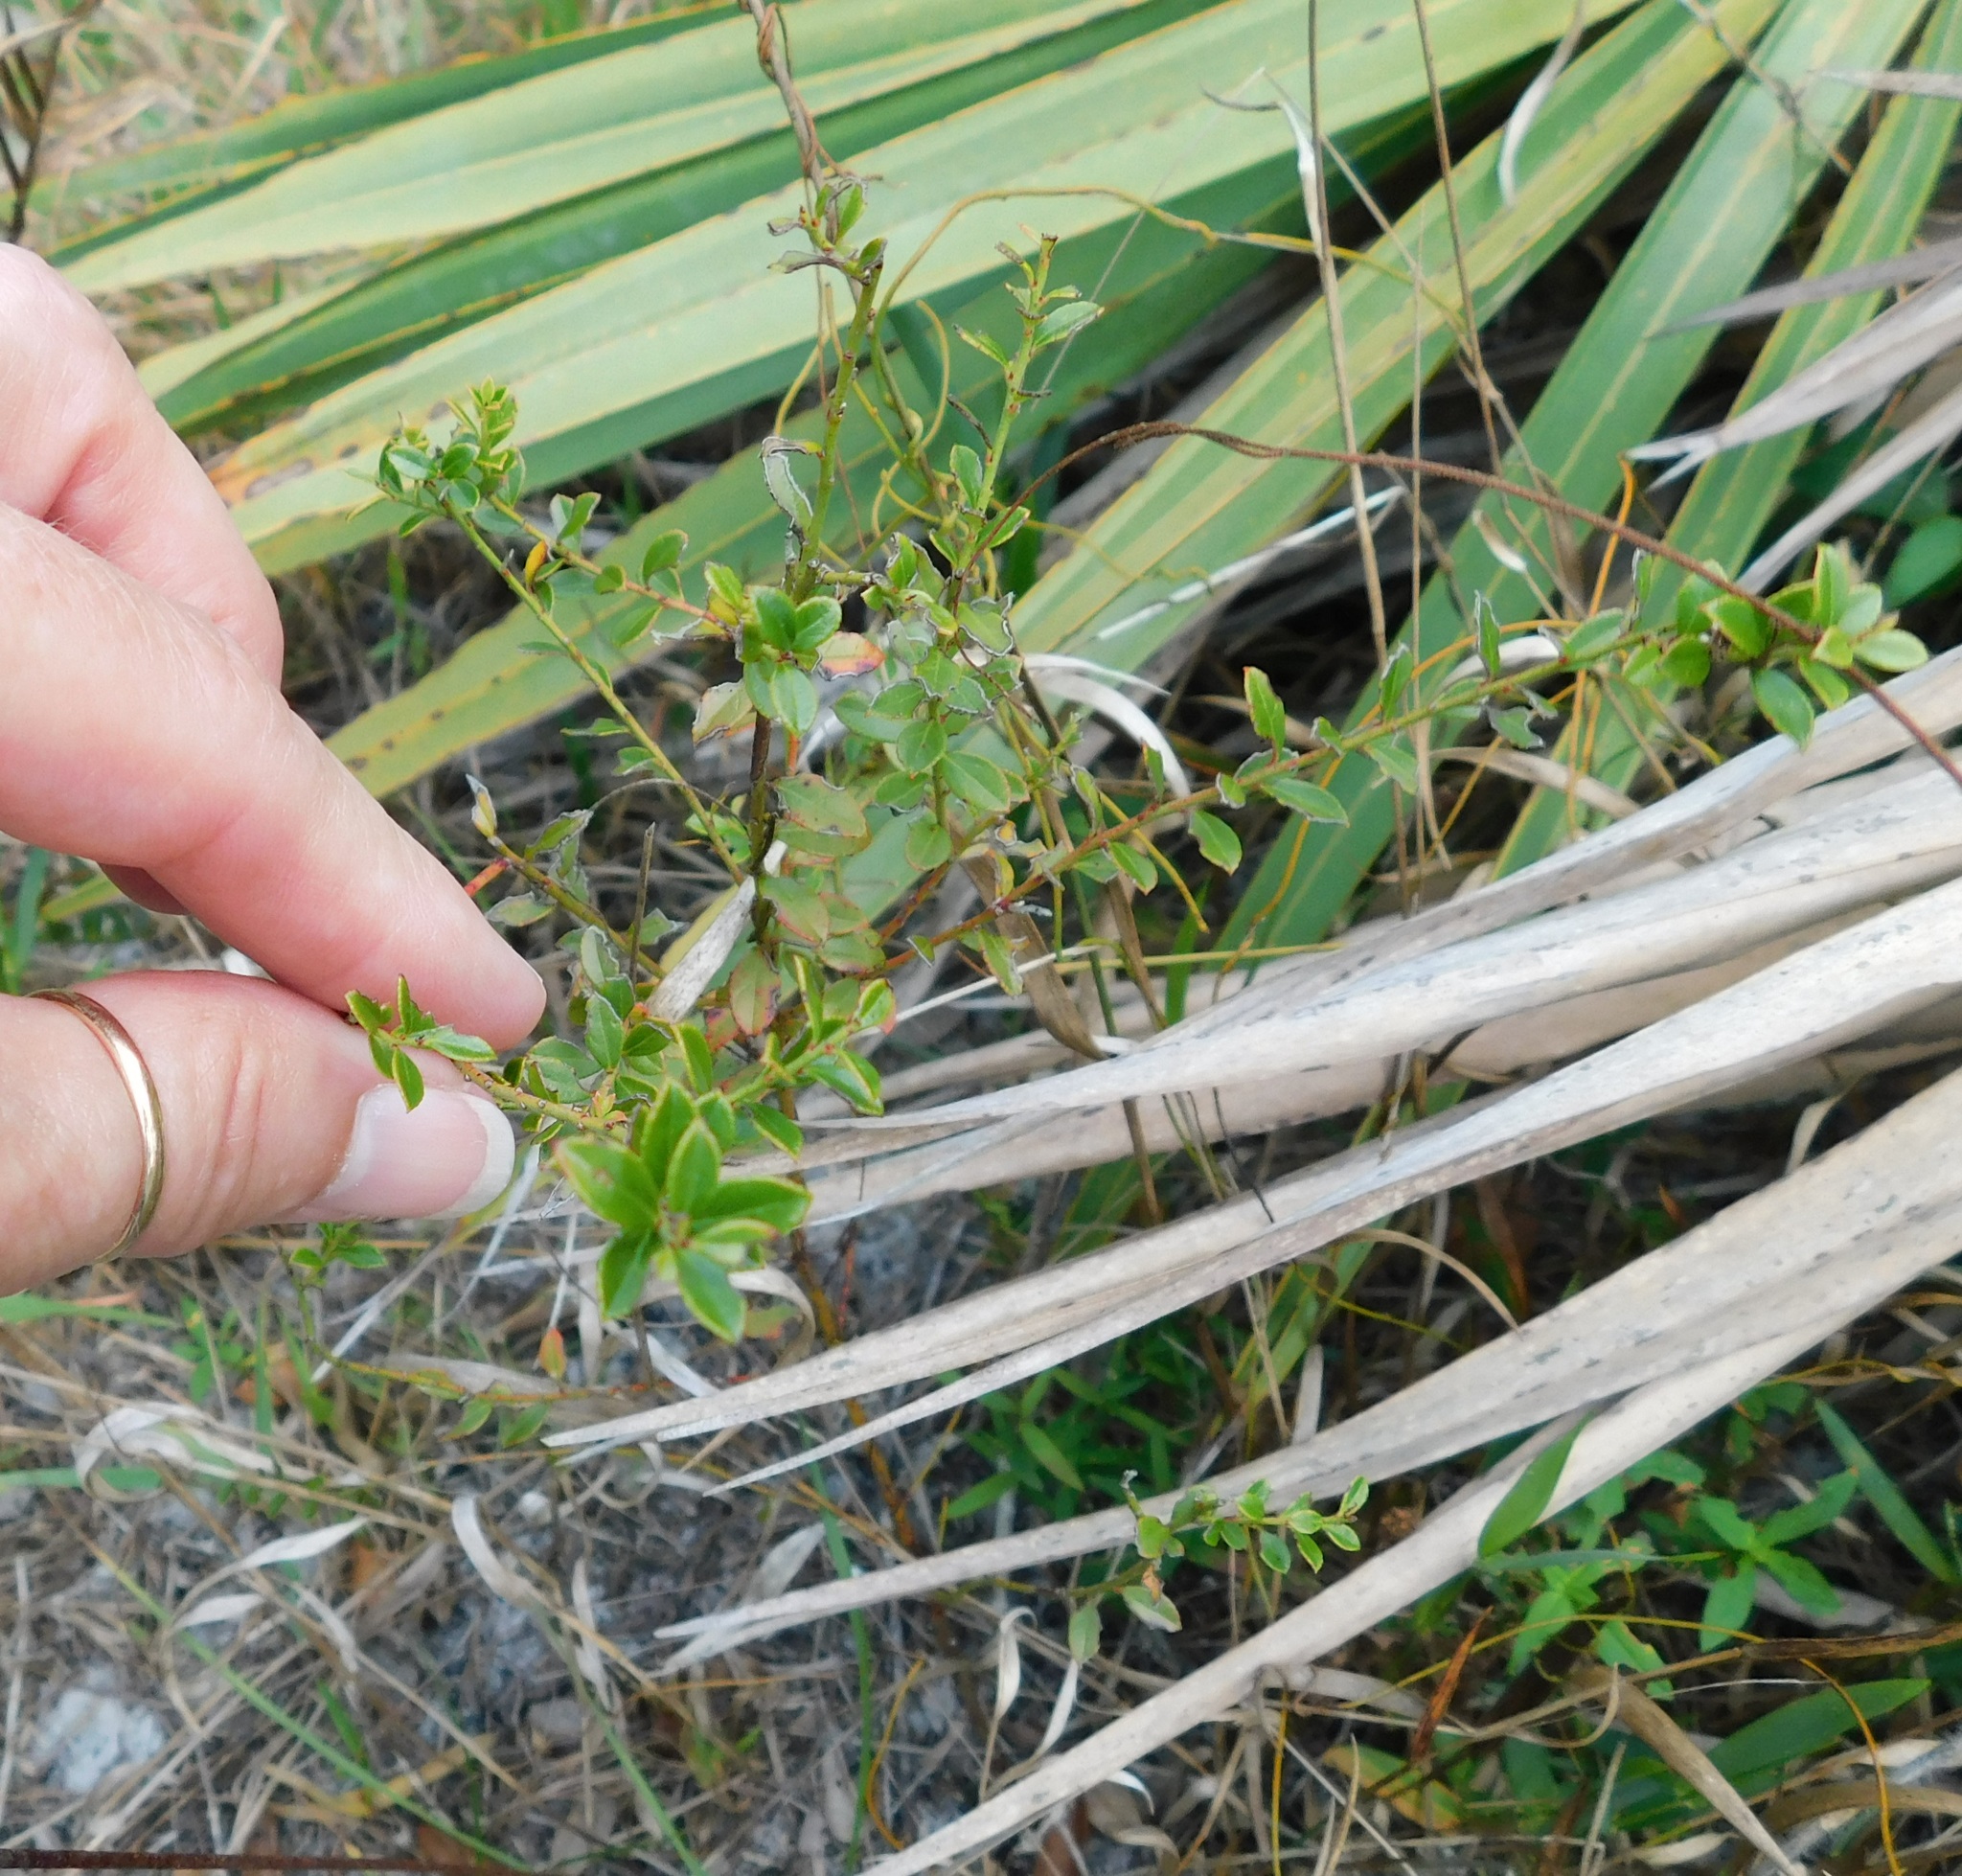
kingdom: Plantae
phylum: Tracheophyta
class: Magnoliopsida
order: Ericales
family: Ericaceae
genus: Vaccinium
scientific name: Vaccinium myrsinites
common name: Evergreen blueberry
